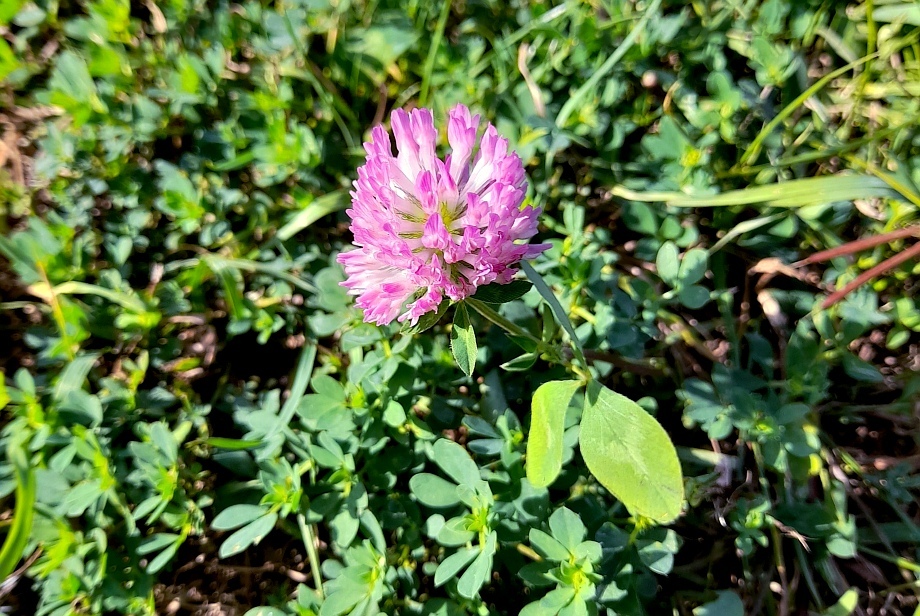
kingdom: Plantae
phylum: Tracheophyta
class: Magnoliopsida
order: Fabales
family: Fabaceae
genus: Trifolium
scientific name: Trifolium pratense
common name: Red clover
